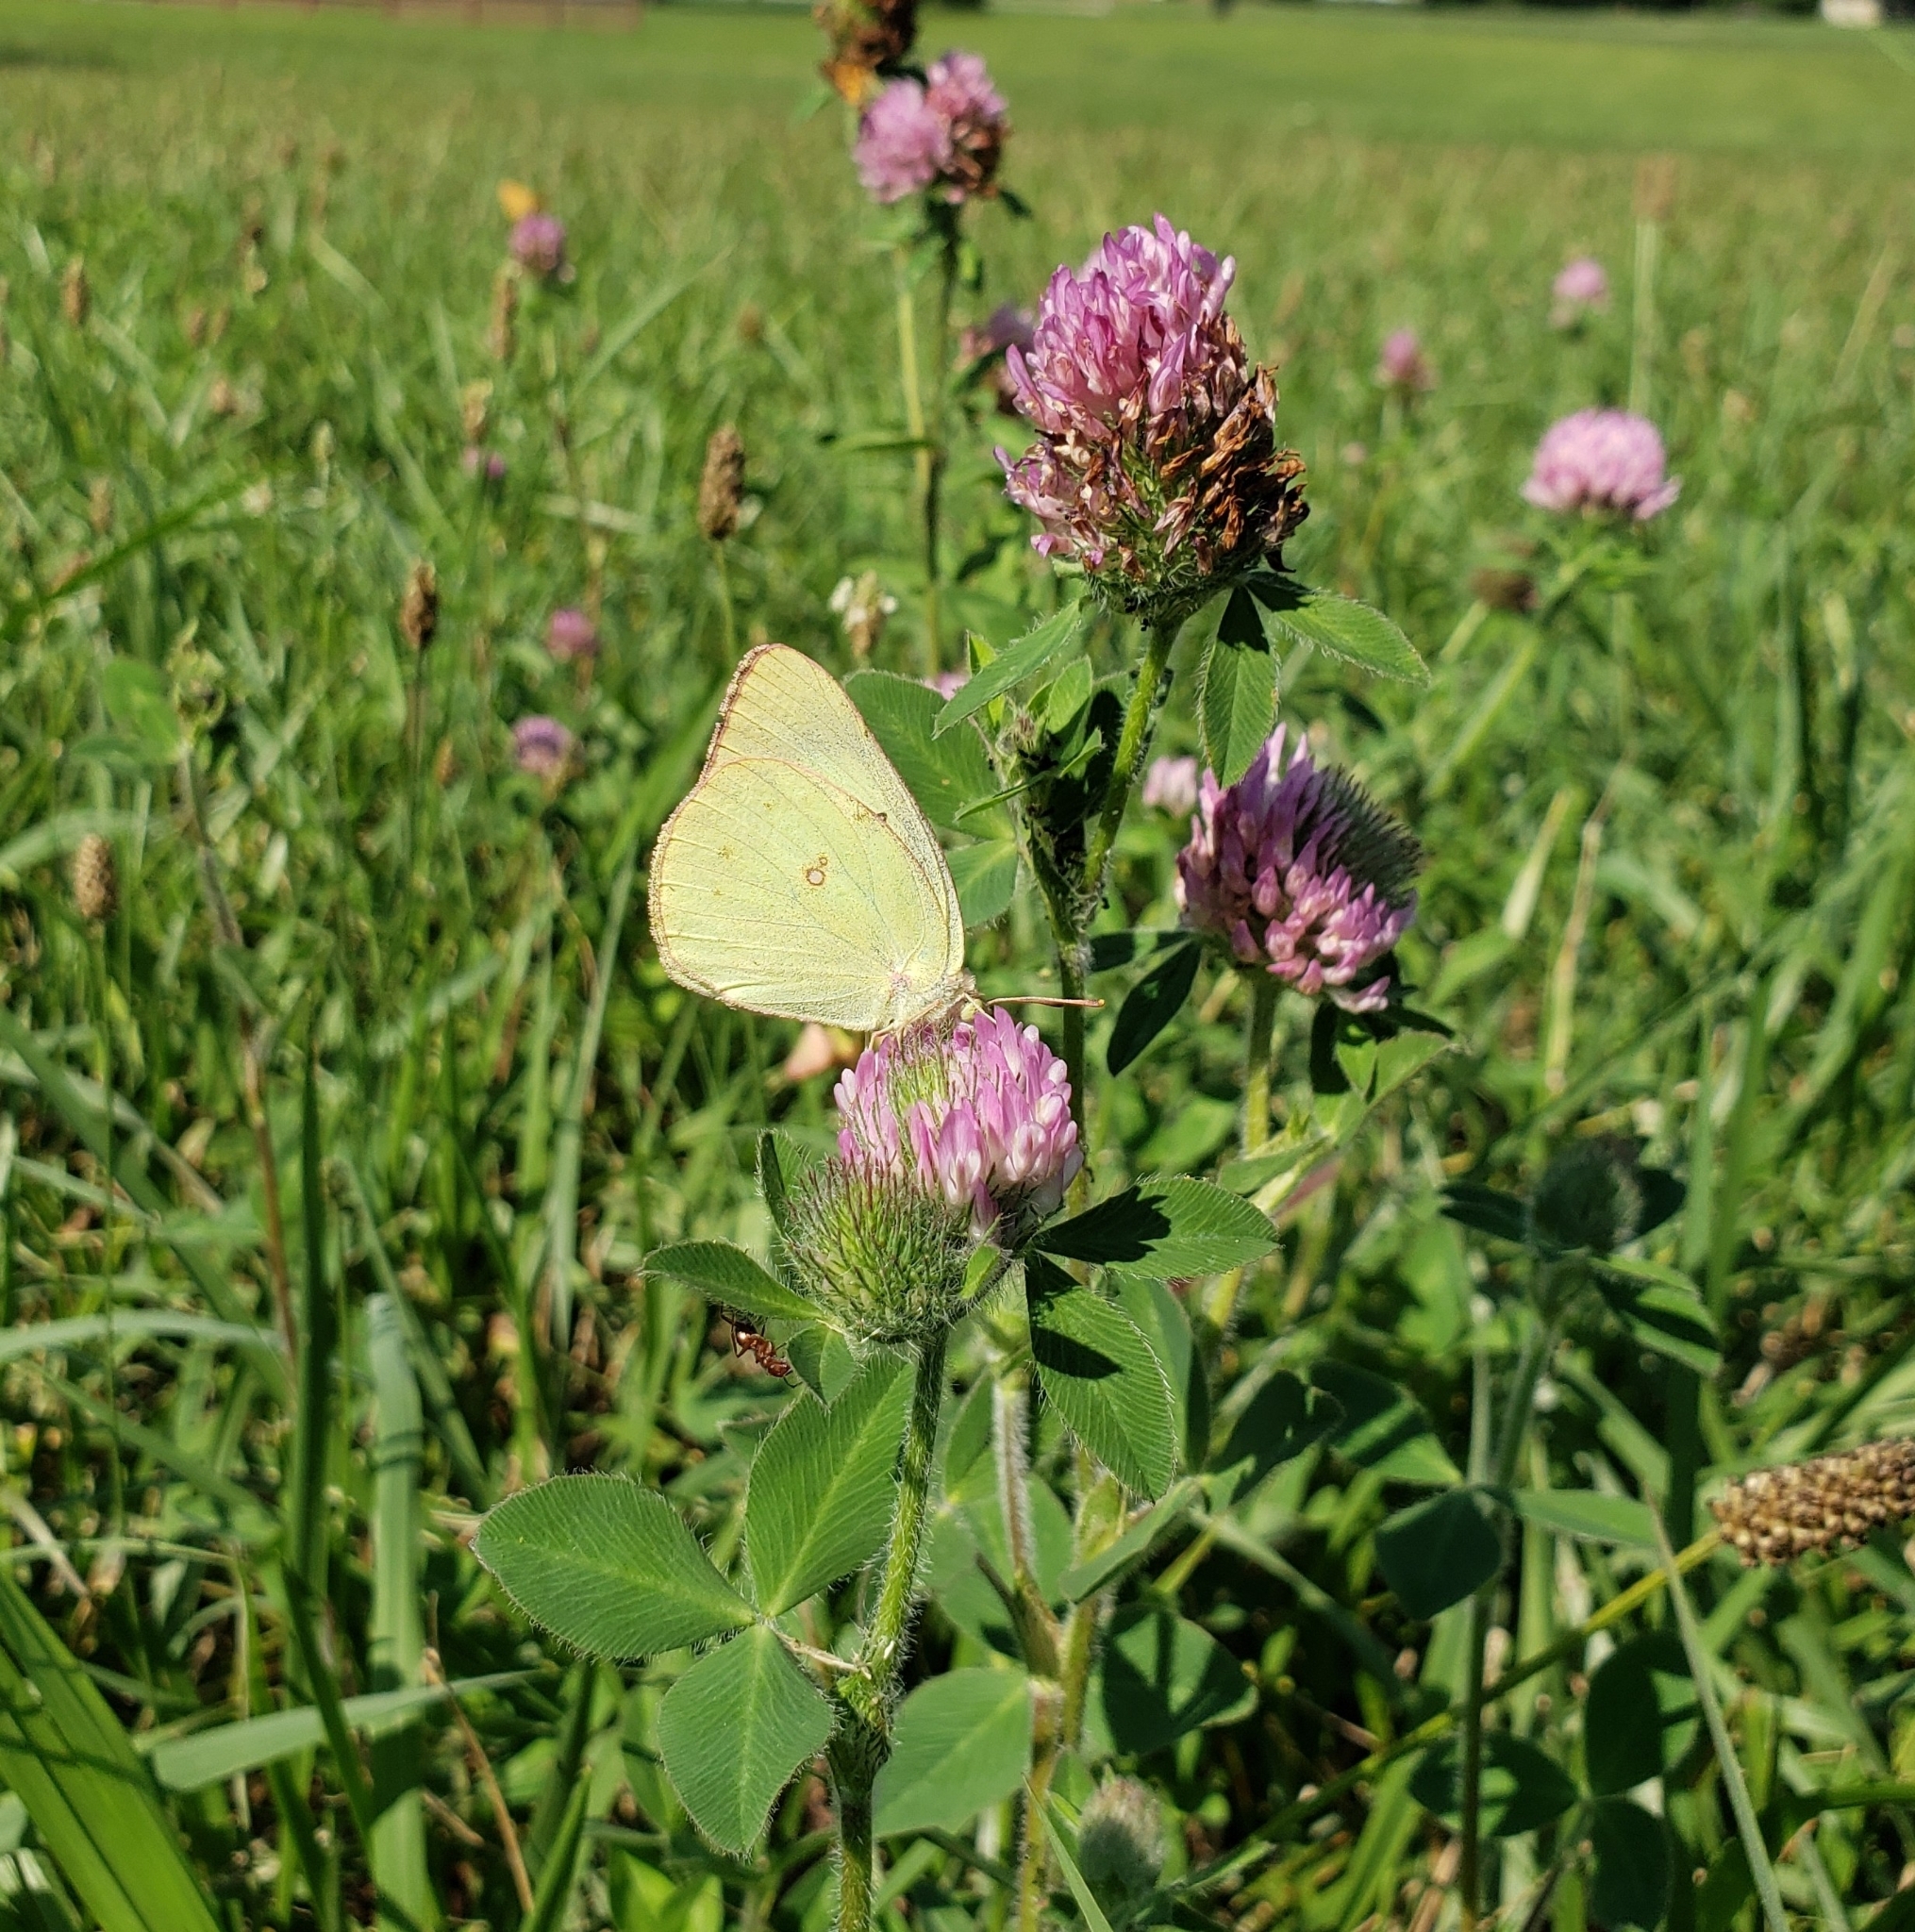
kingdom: Animalia
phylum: Arthropoda
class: Insecta
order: Lepidoptera
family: Pieridae
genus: Colias
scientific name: Colias philodice
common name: Clouded sulphur
